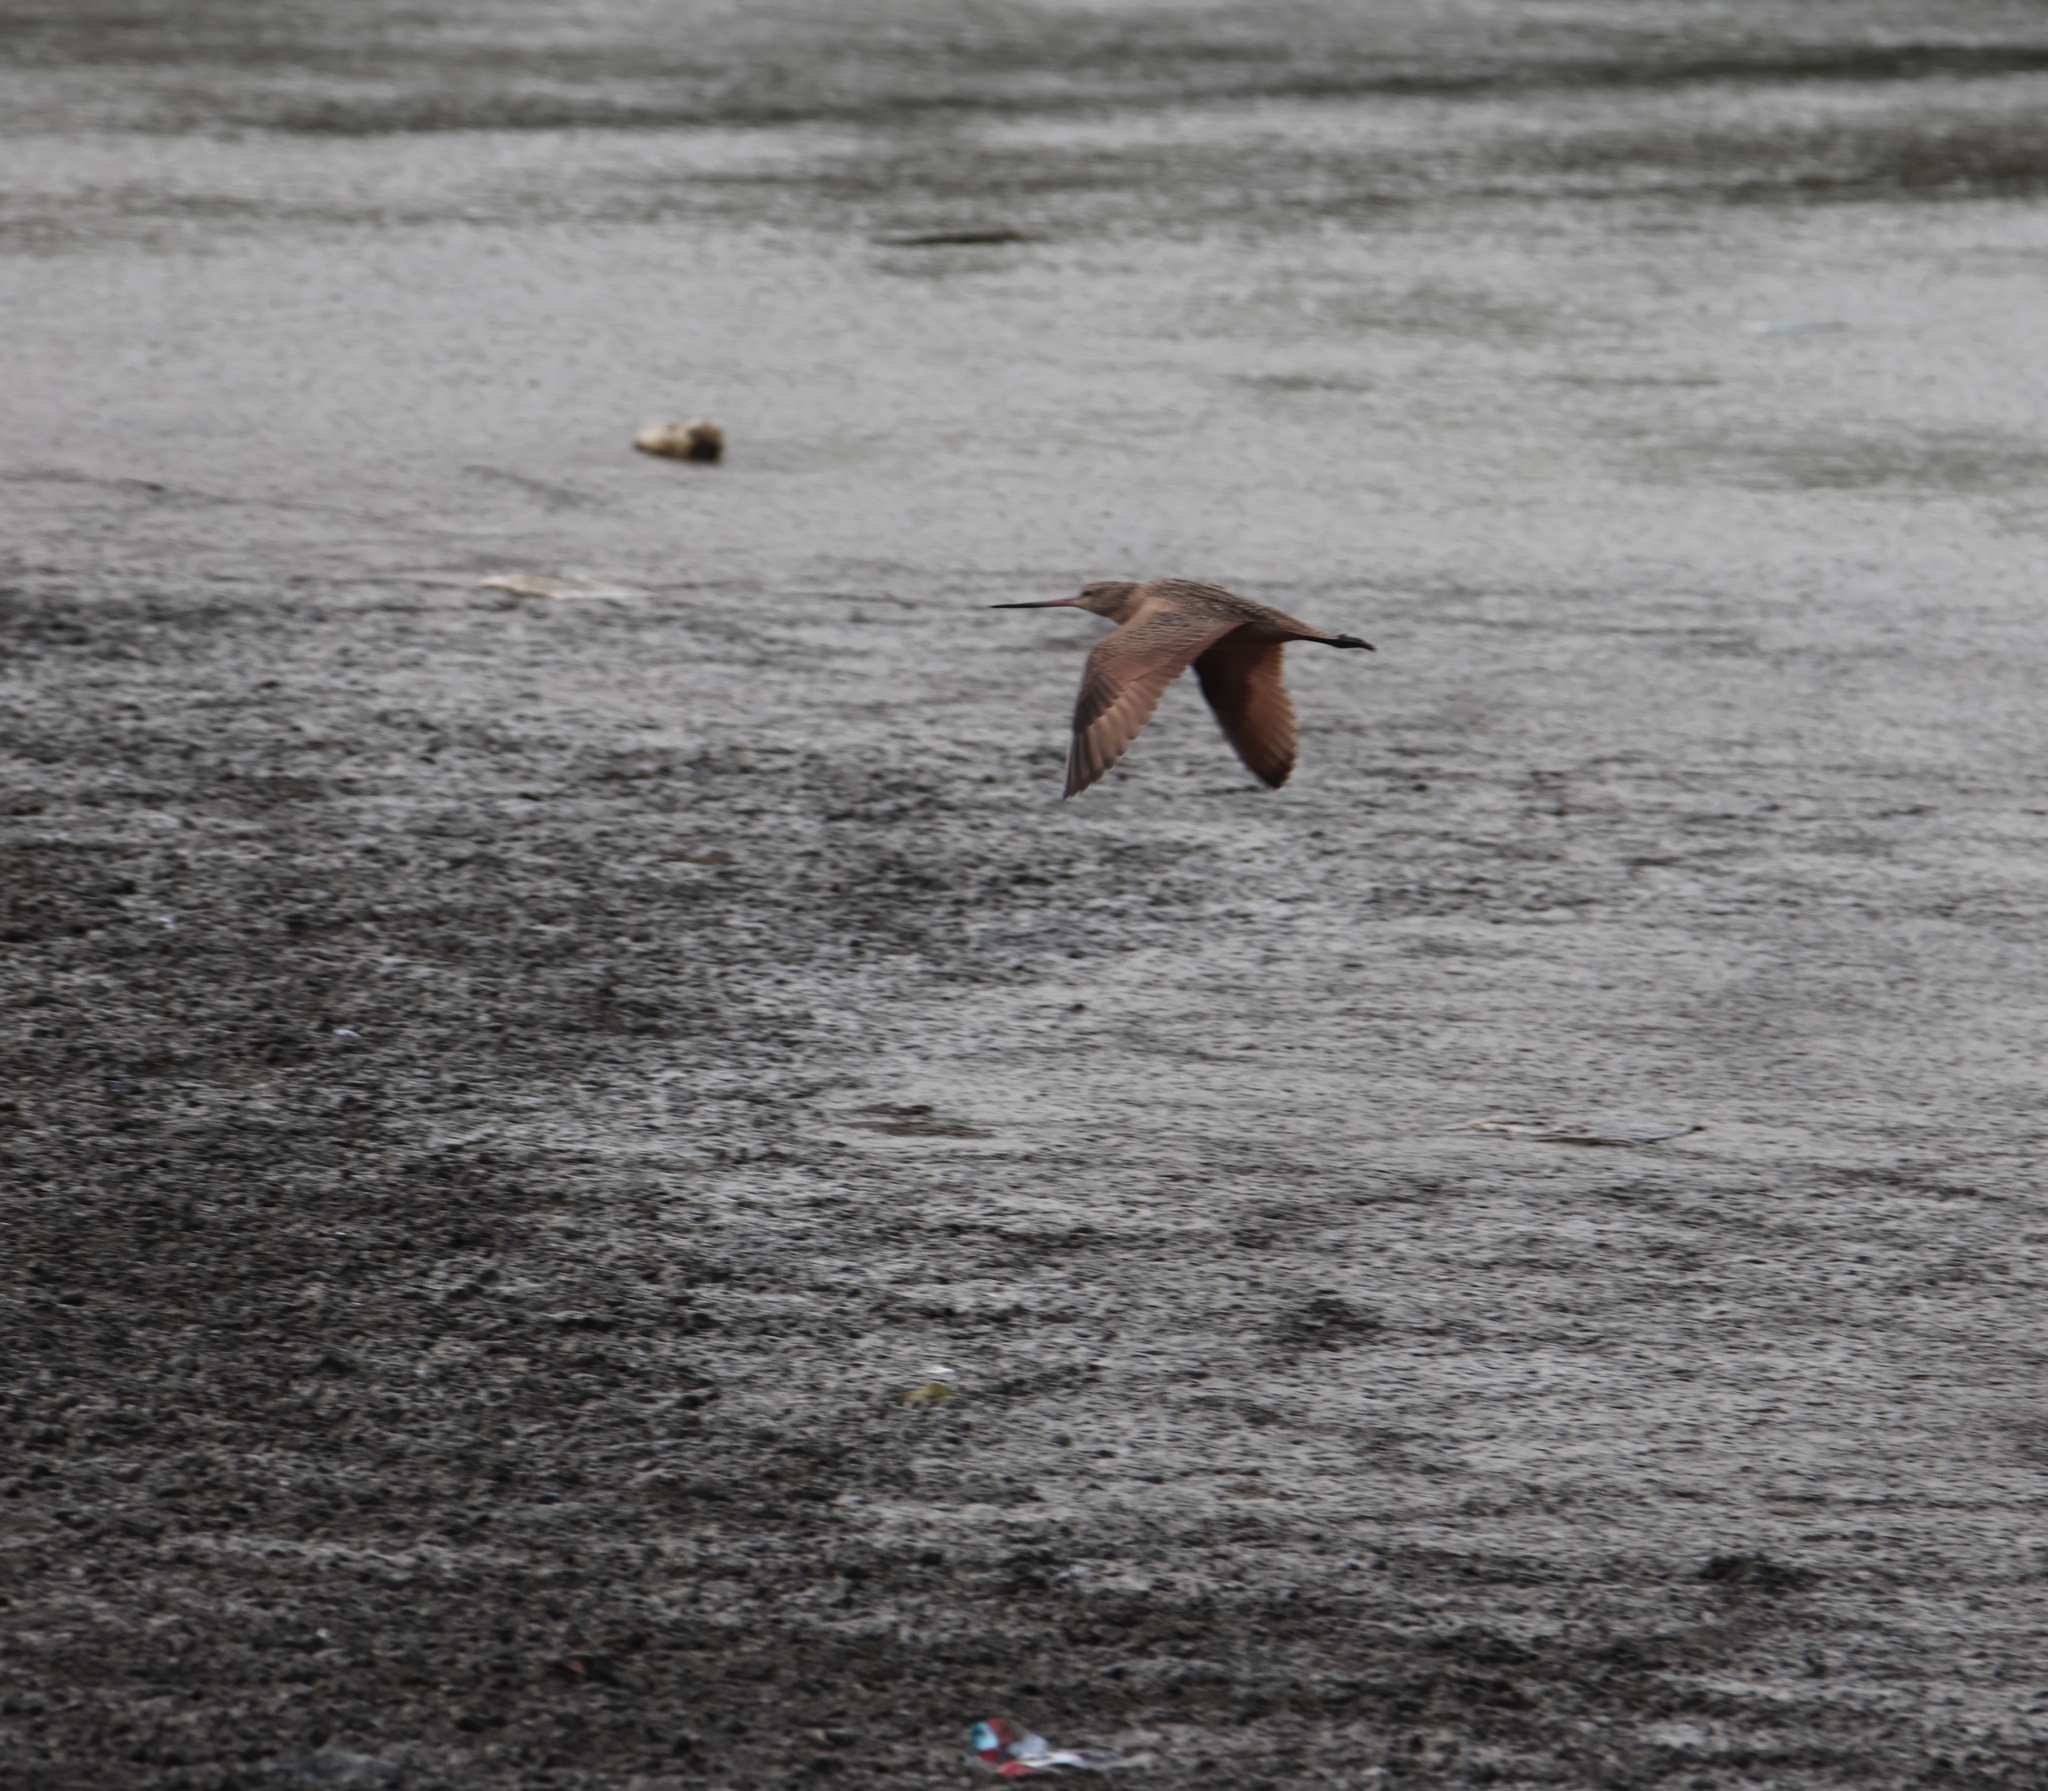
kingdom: Animalia
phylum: Chordata
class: Aves
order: Charadriiformes
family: Scolopacidae
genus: Limosa
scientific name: Limosa fedoa
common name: Marbled godwit
